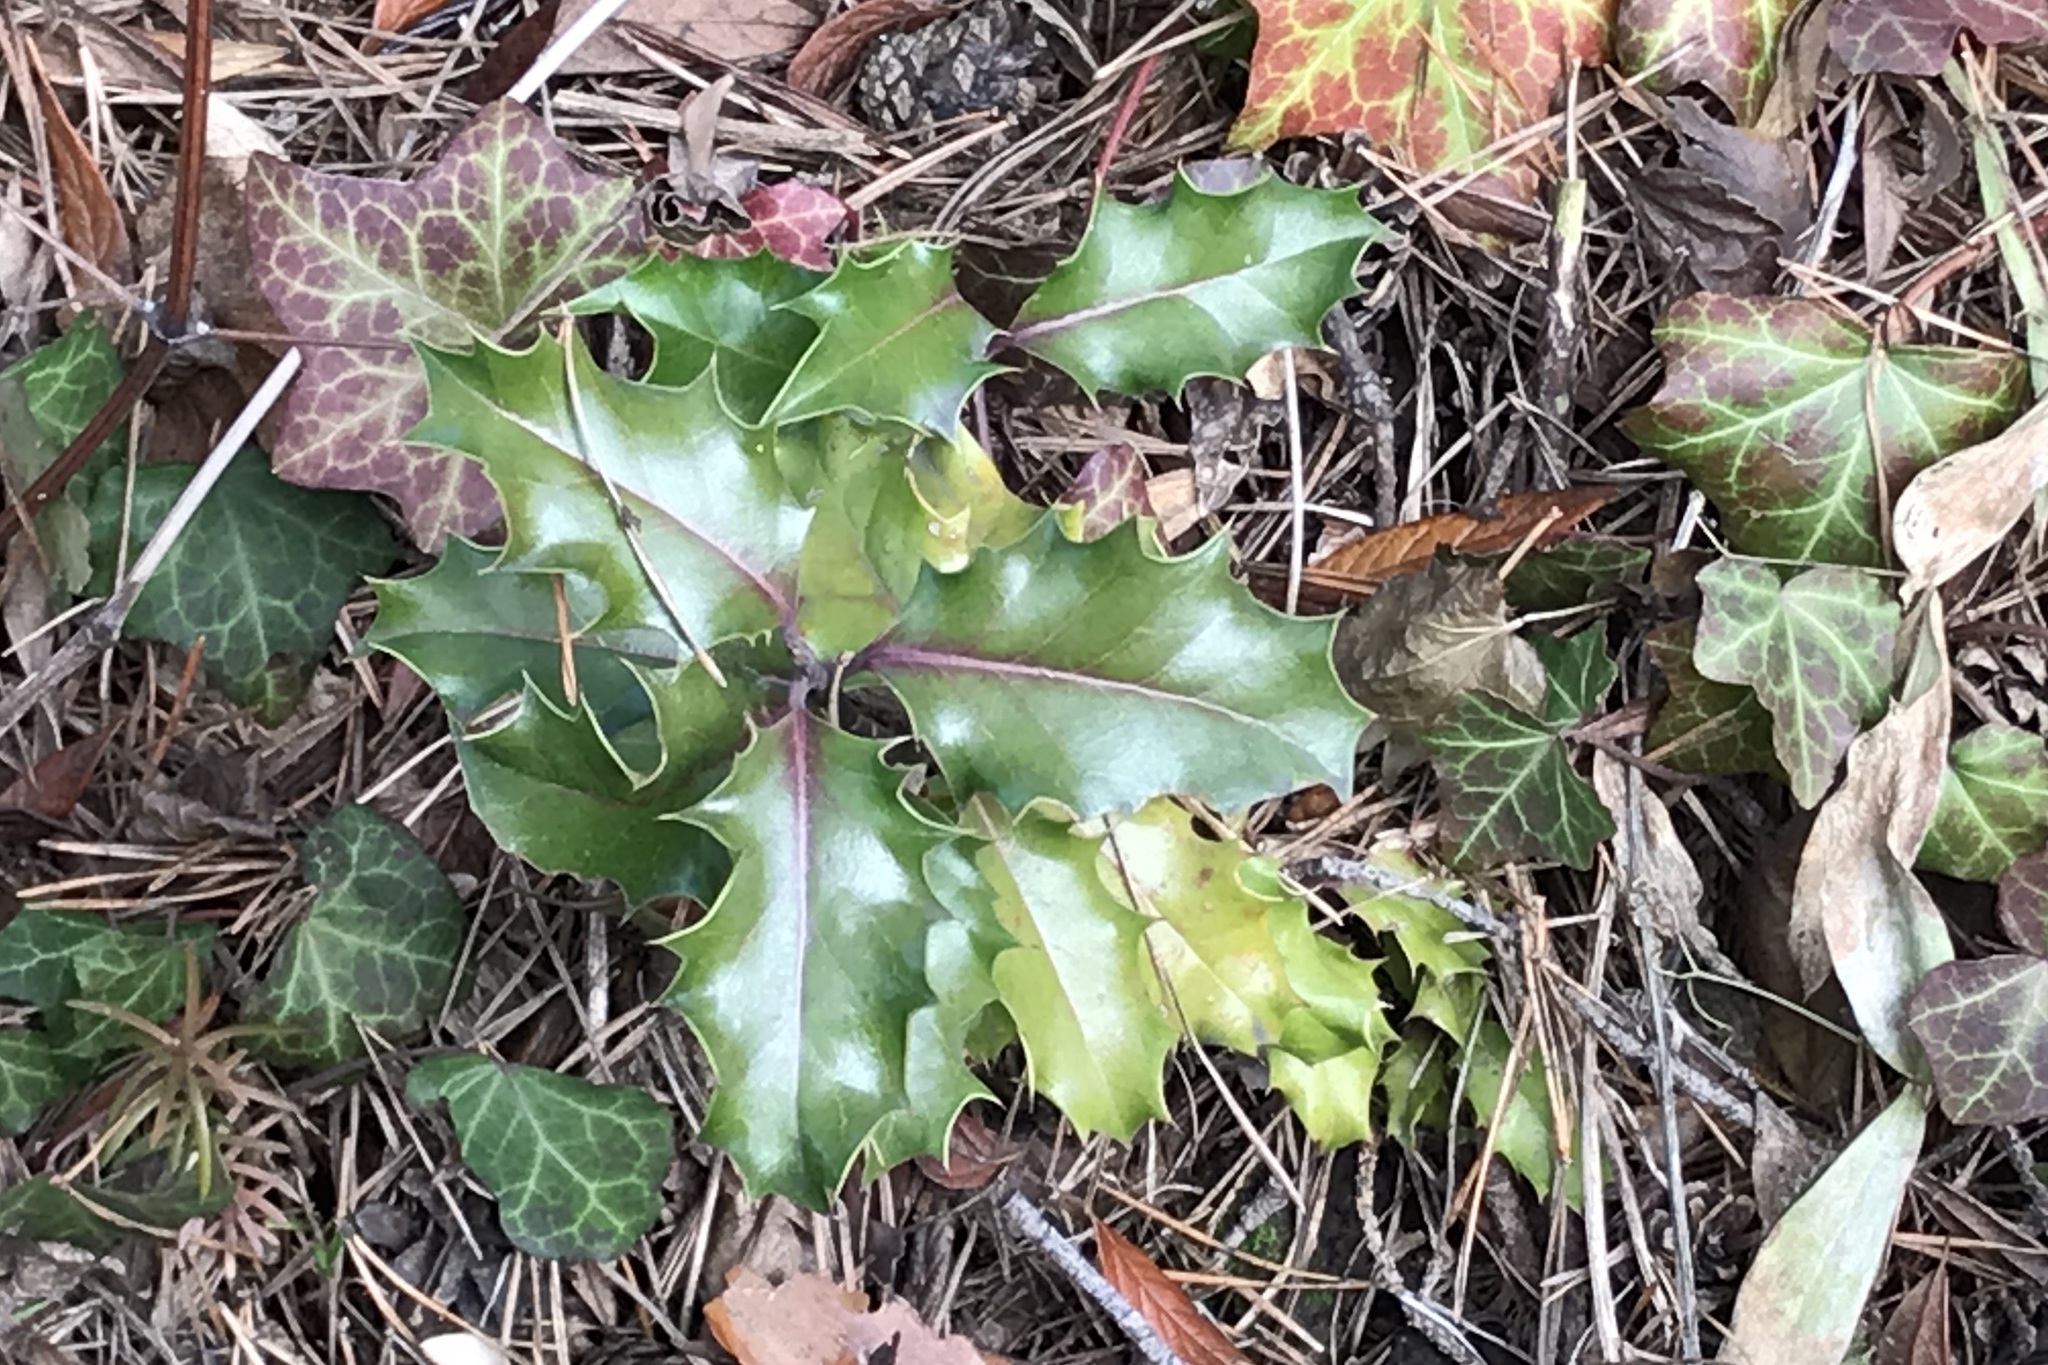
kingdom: Plantae
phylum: Tracheophyta
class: Magnoliopsida
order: Aquifoliales
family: Aquifoliaceae
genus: Ilex
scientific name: Ilex aquifolium
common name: English holly
